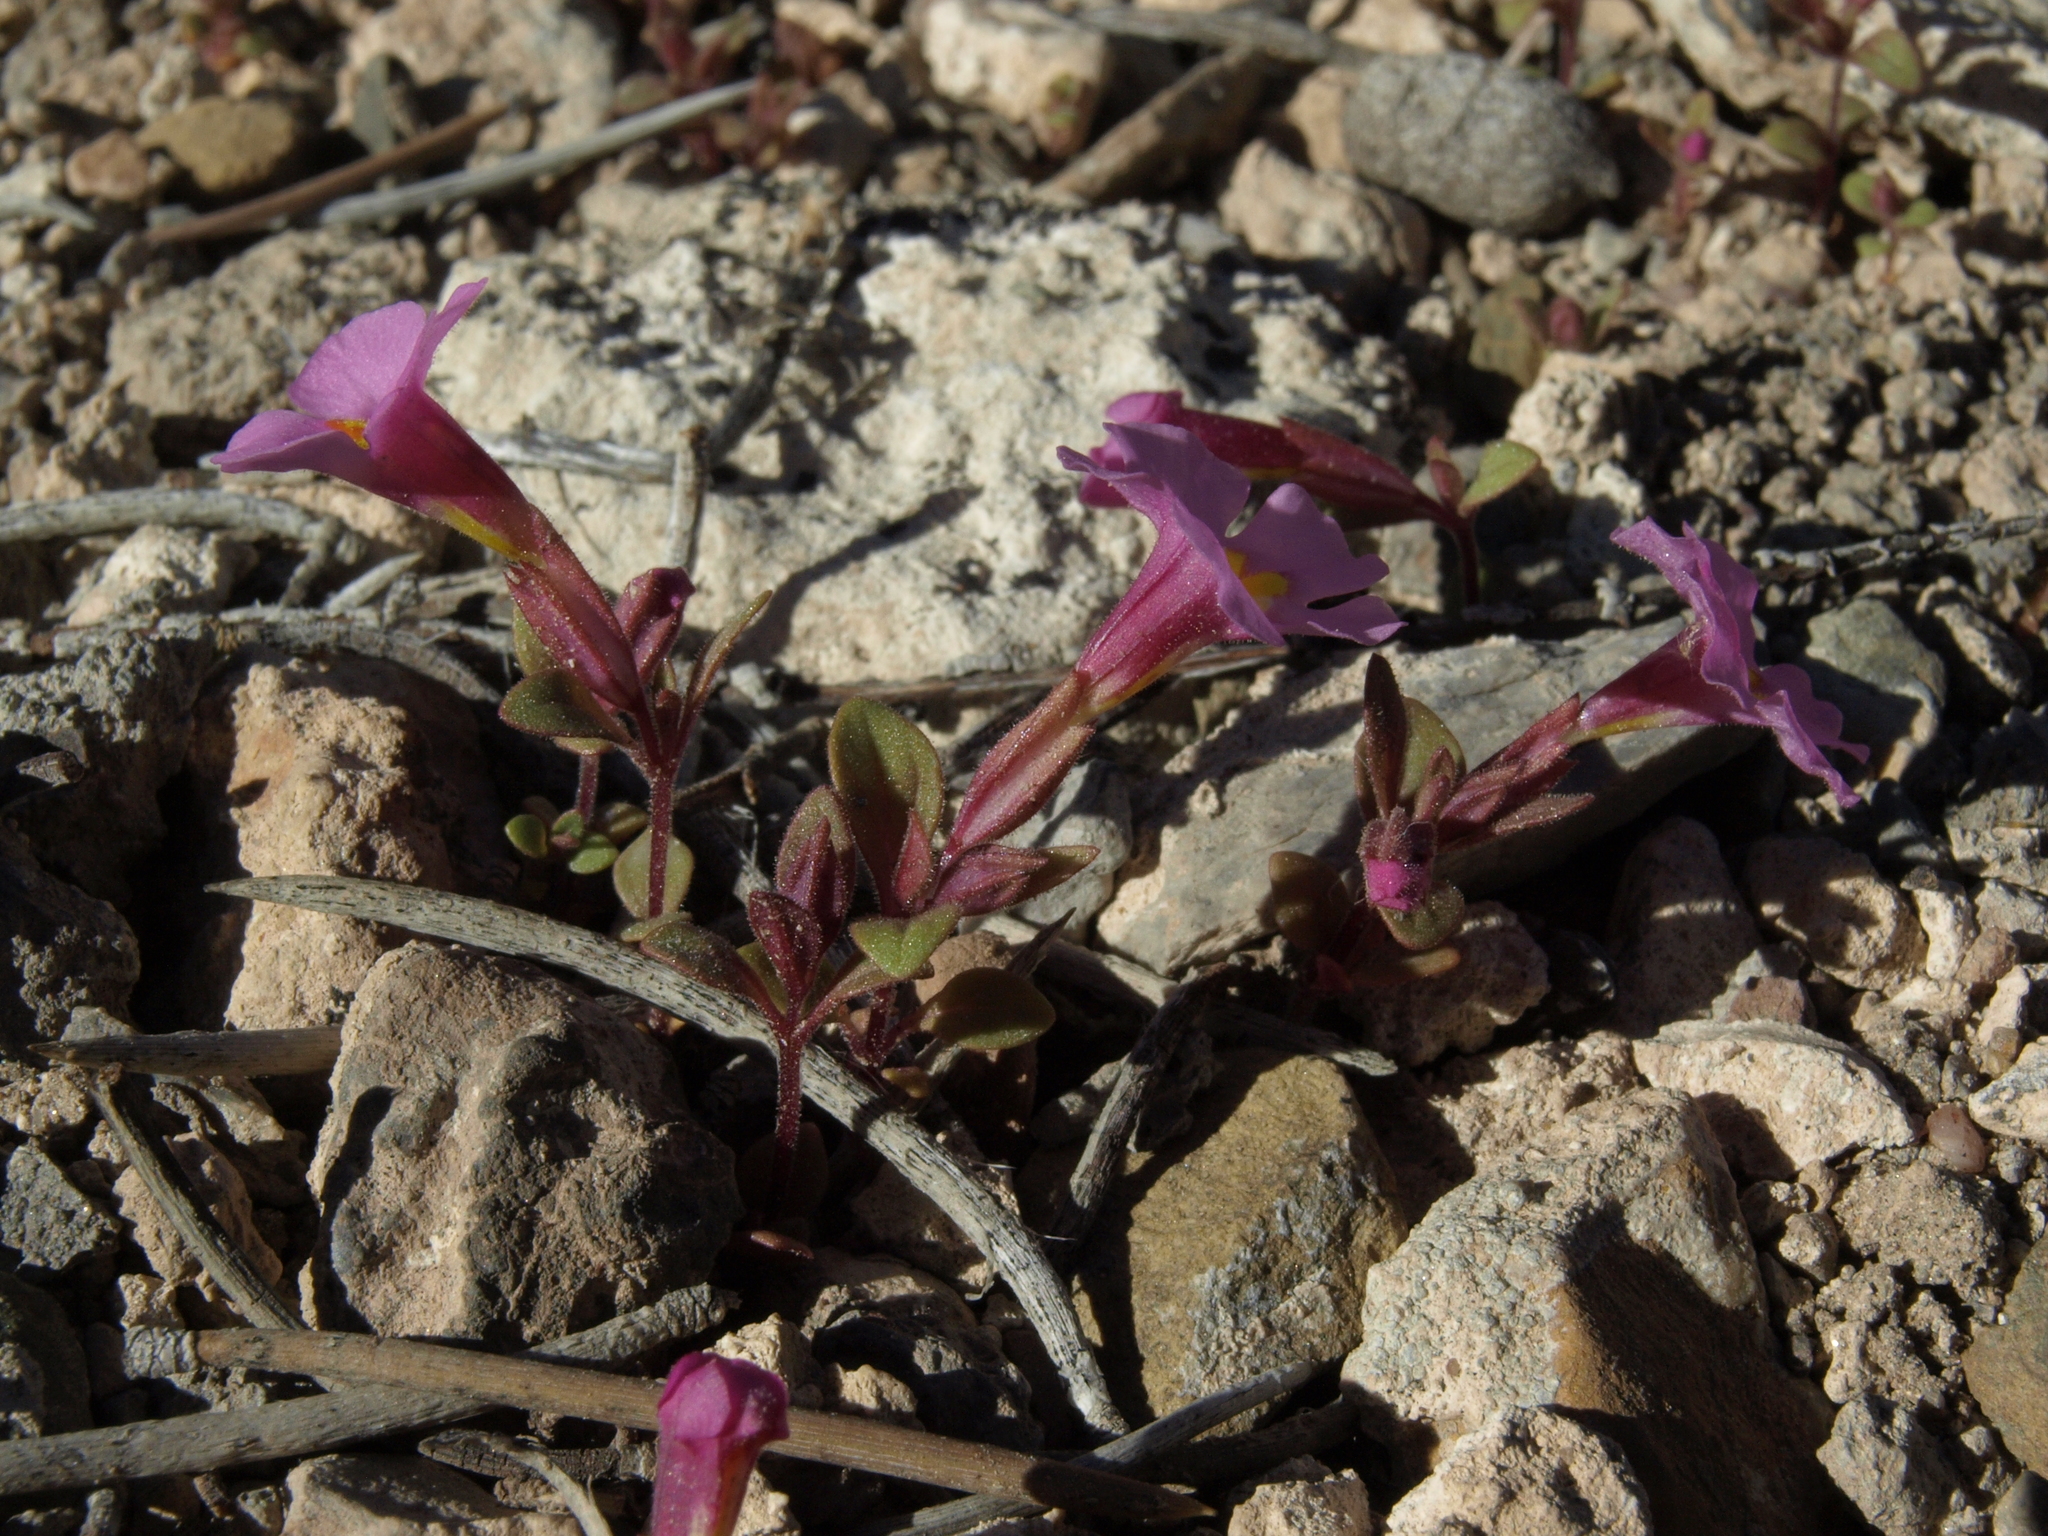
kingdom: Plantae
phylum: Tracheophyta
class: Magnoliopsida
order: Lamiales
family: Phrymaceae
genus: Diplacus
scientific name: Diplacus parryi
